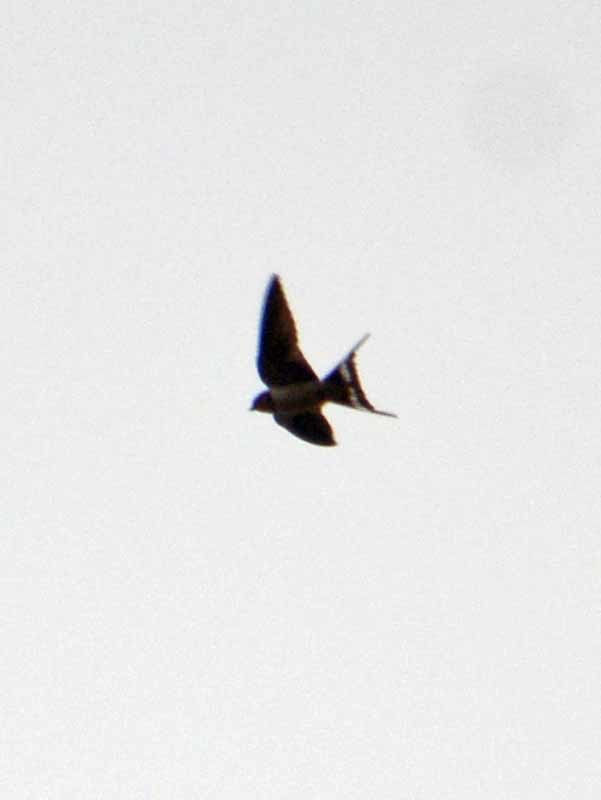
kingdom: Animalia
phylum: Chordata
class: Aves
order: Passeriformes
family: Hirundinidae
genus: Hirundo
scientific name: Hirundo rustica
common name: Barn swallow
